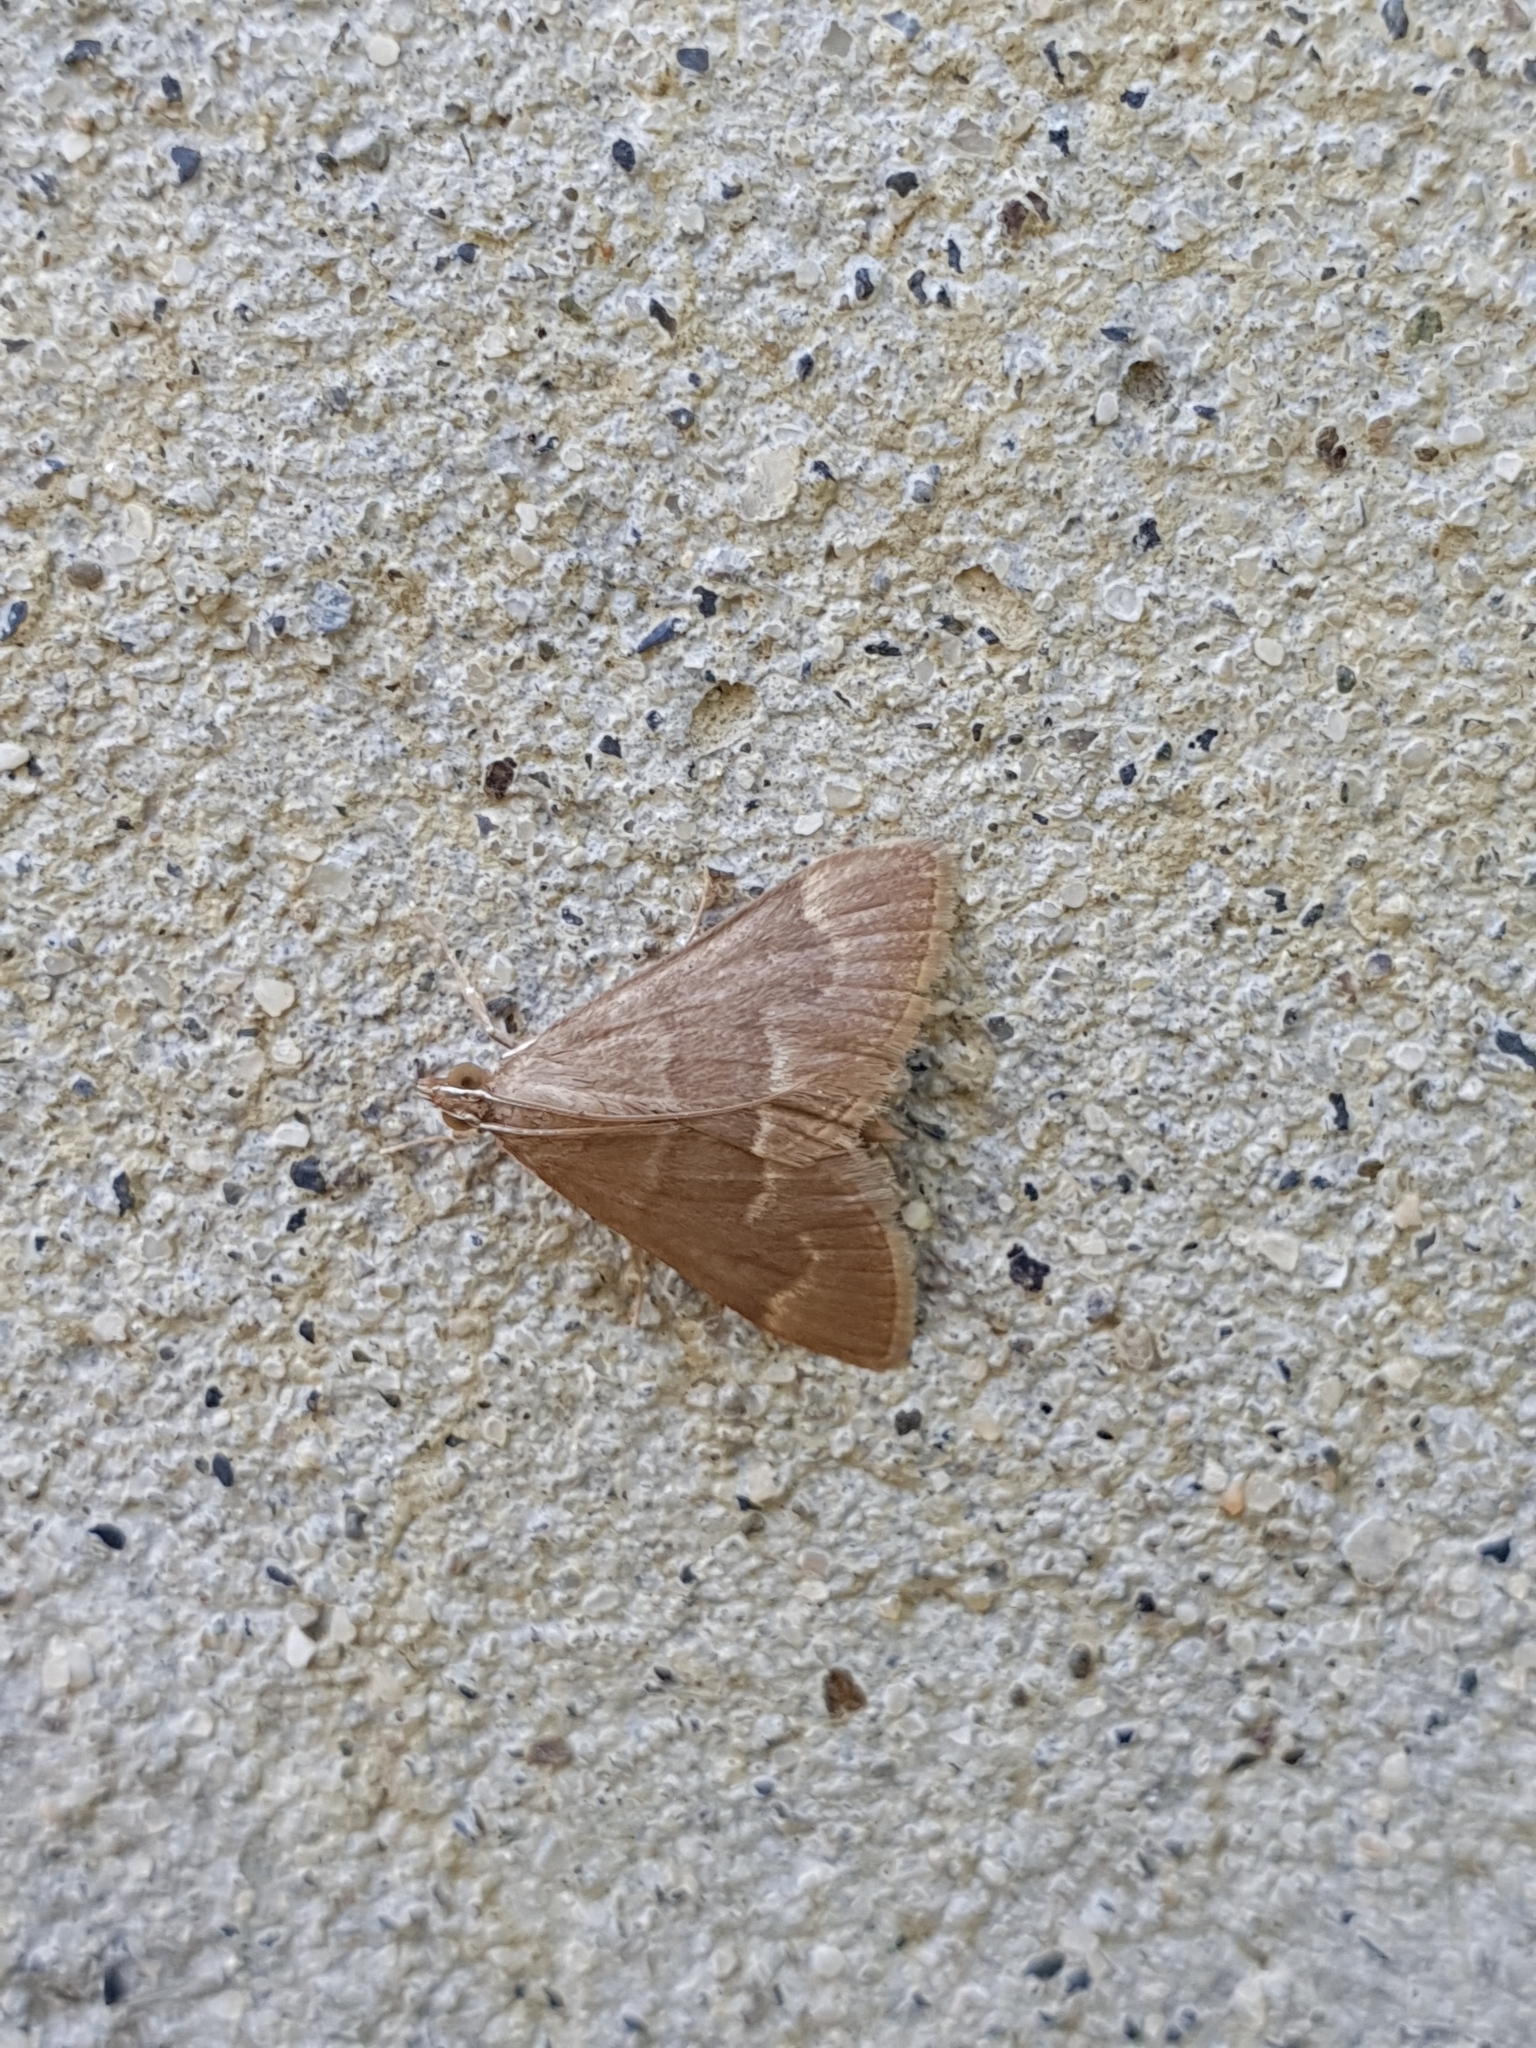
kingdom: Animalia
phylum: Arthropoda
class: Insecta
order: Lepidoptera
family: Crambidae
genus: Ecpyrrhorrhoe
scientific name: Ecpyrrhorrhoe diffusalis
